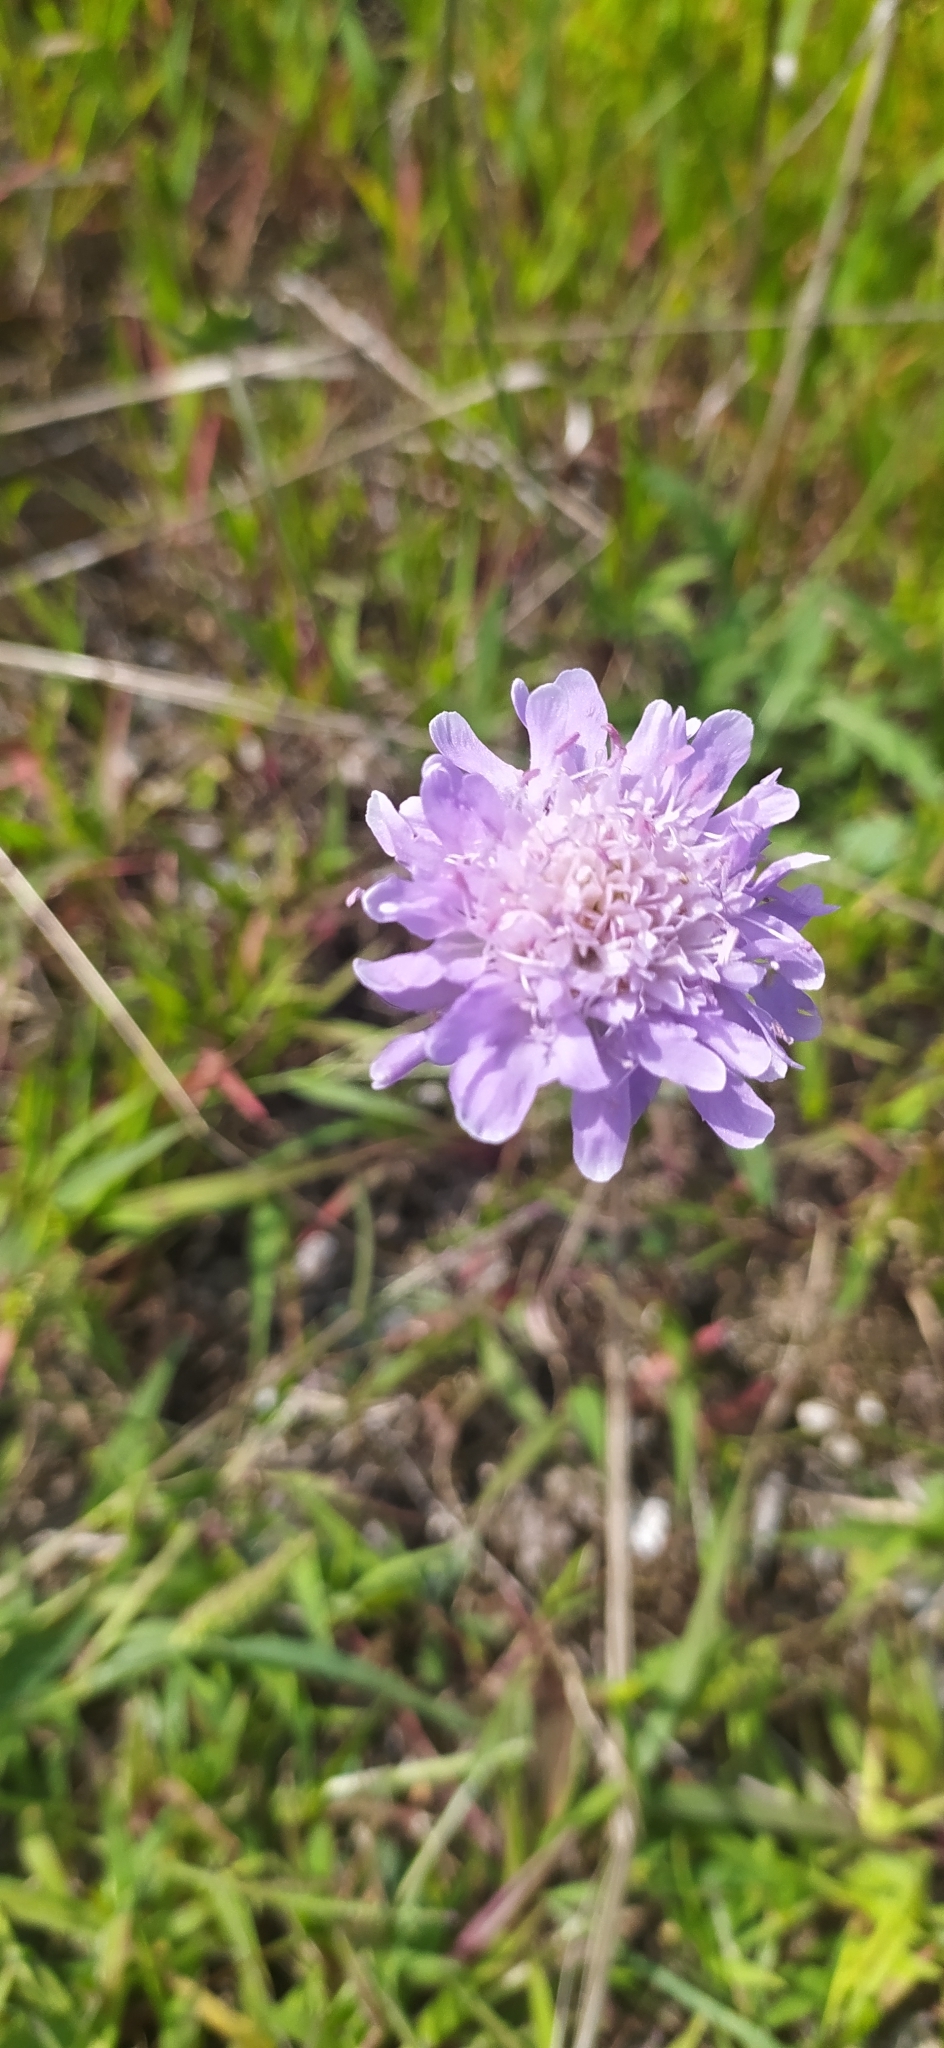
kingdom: Plantae
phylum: Tracheophyta
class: Magnoliopsida
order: Dipsacales
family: Caprifoliaceae
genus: Knautia
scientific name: Knautia arvensis
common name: Field scabiosa
